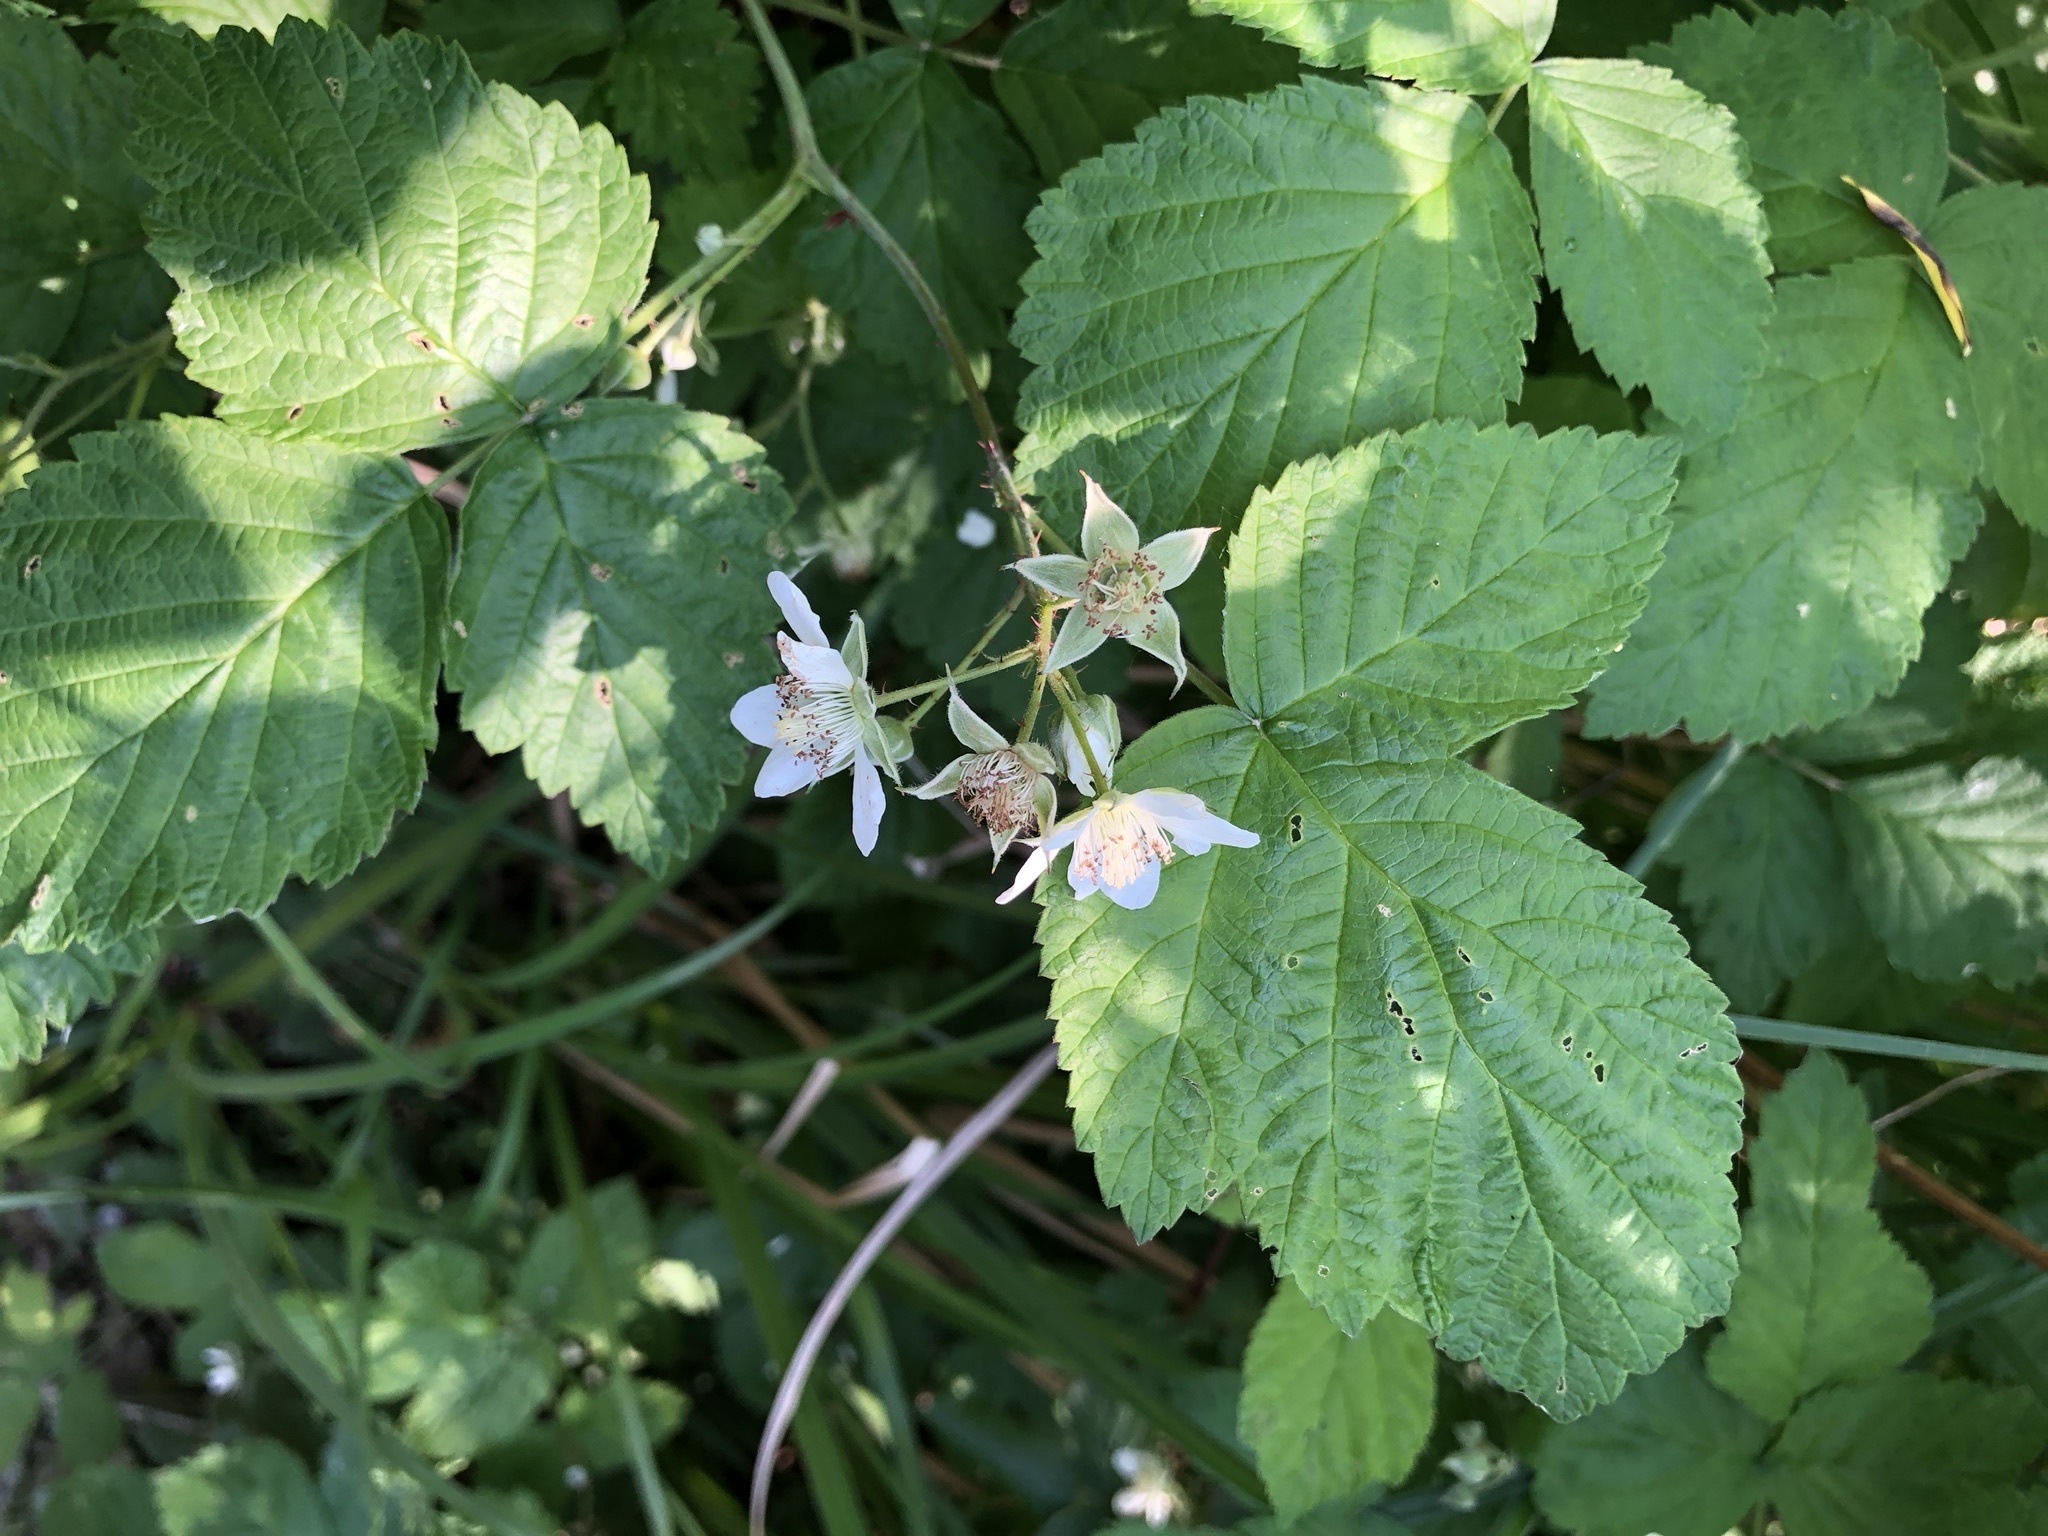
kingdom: Plantae
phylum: Tracheophyta
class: Magnoliopsida
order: Rosales
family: Rosaceae
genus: Rubus
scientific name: Rubus caesius
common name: Dewberry
